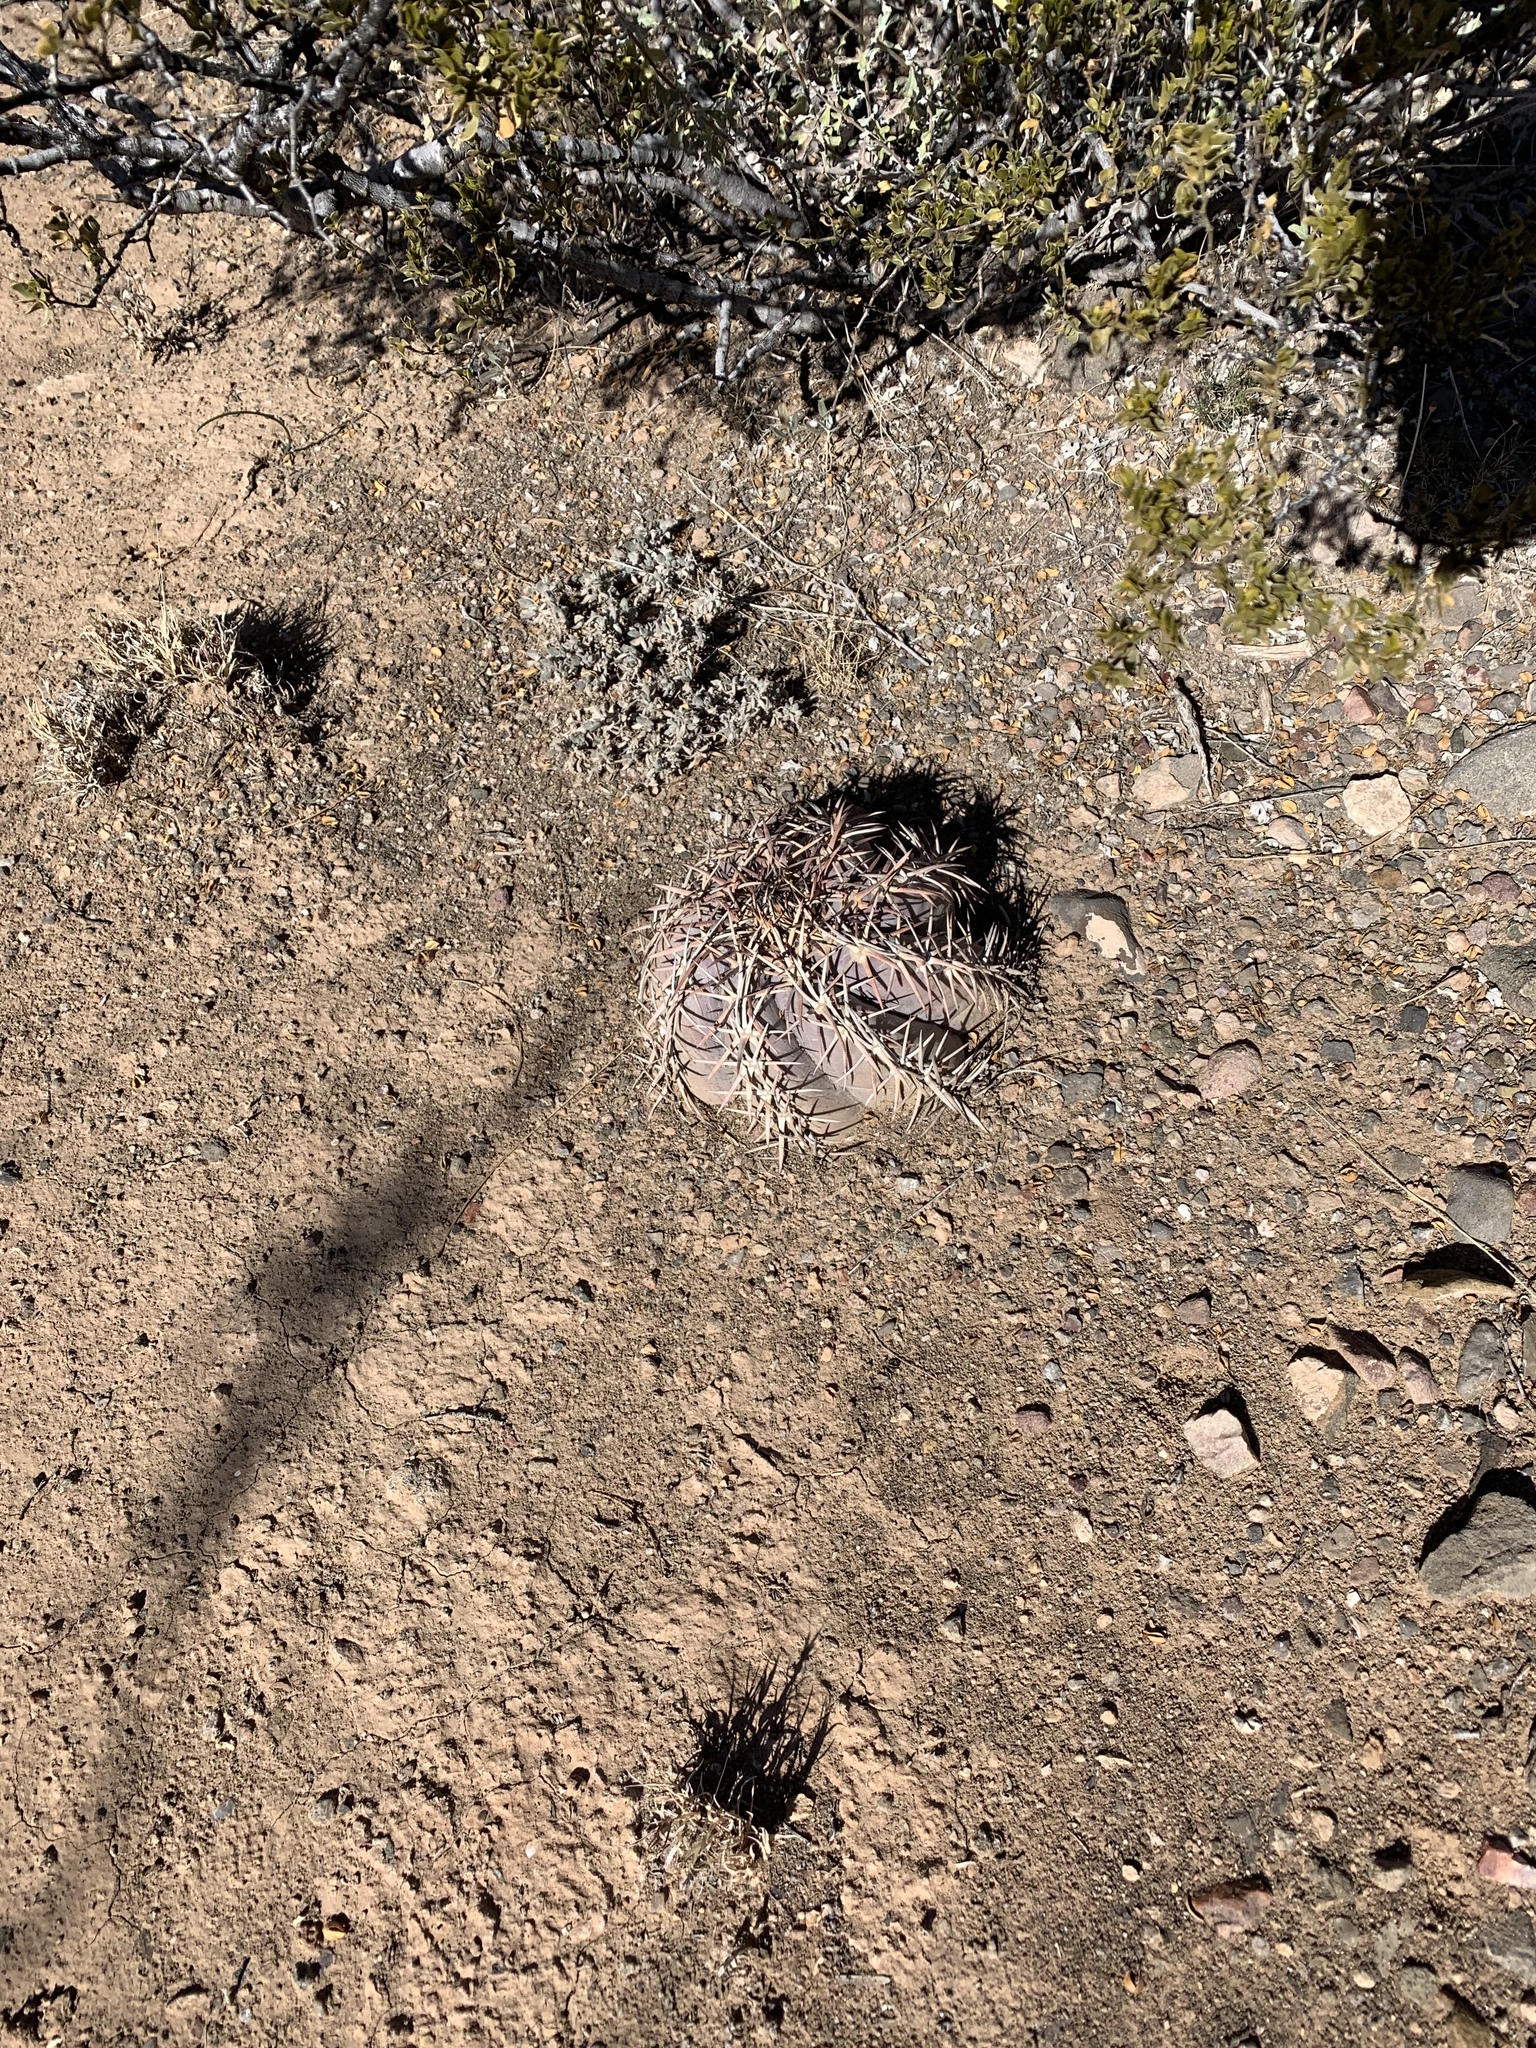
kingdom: Plantae
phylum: Tracheophyta
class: Magnoliopsida
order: Caryophyllales
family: Cactaceae
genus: Echinocactus
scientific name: Echinocactus horizonthalonius
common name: Devilshead
